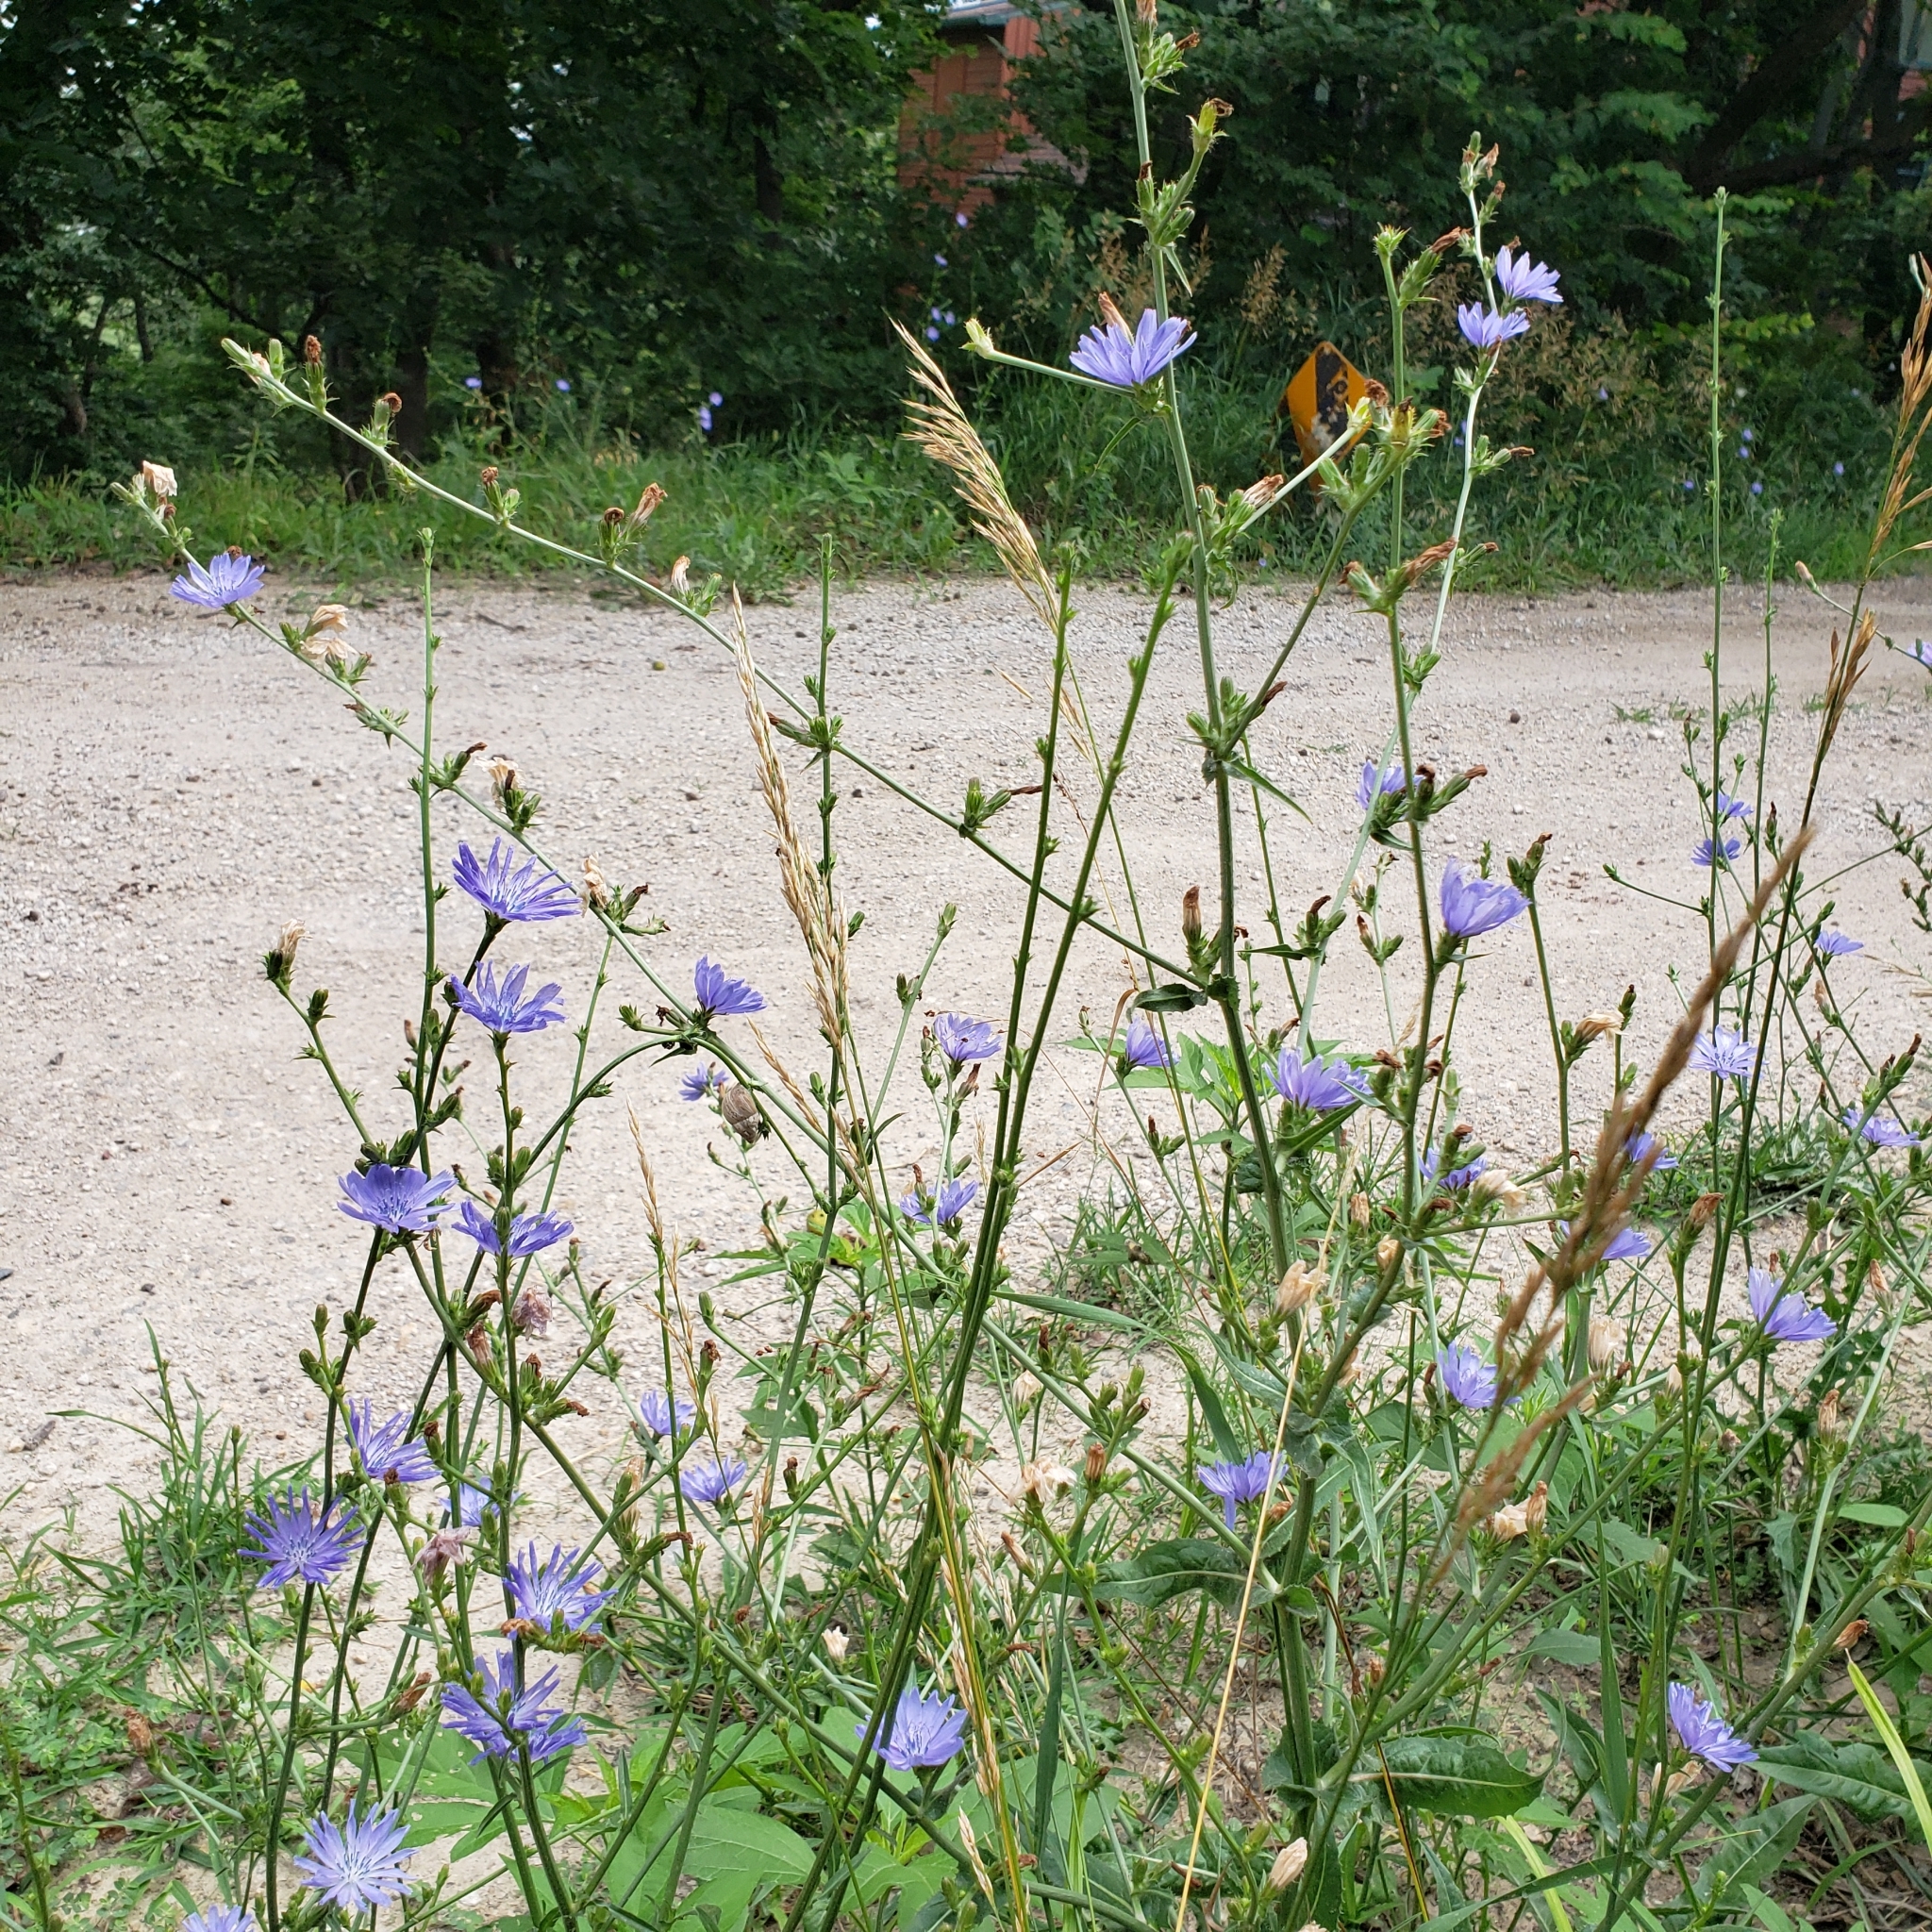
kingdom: Plantae
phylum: Tracheophyta
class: Magnoliopsida
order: Asterales
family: Asteraceae
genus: Cichorium
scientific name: Cichorium intybus
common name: Chicory
